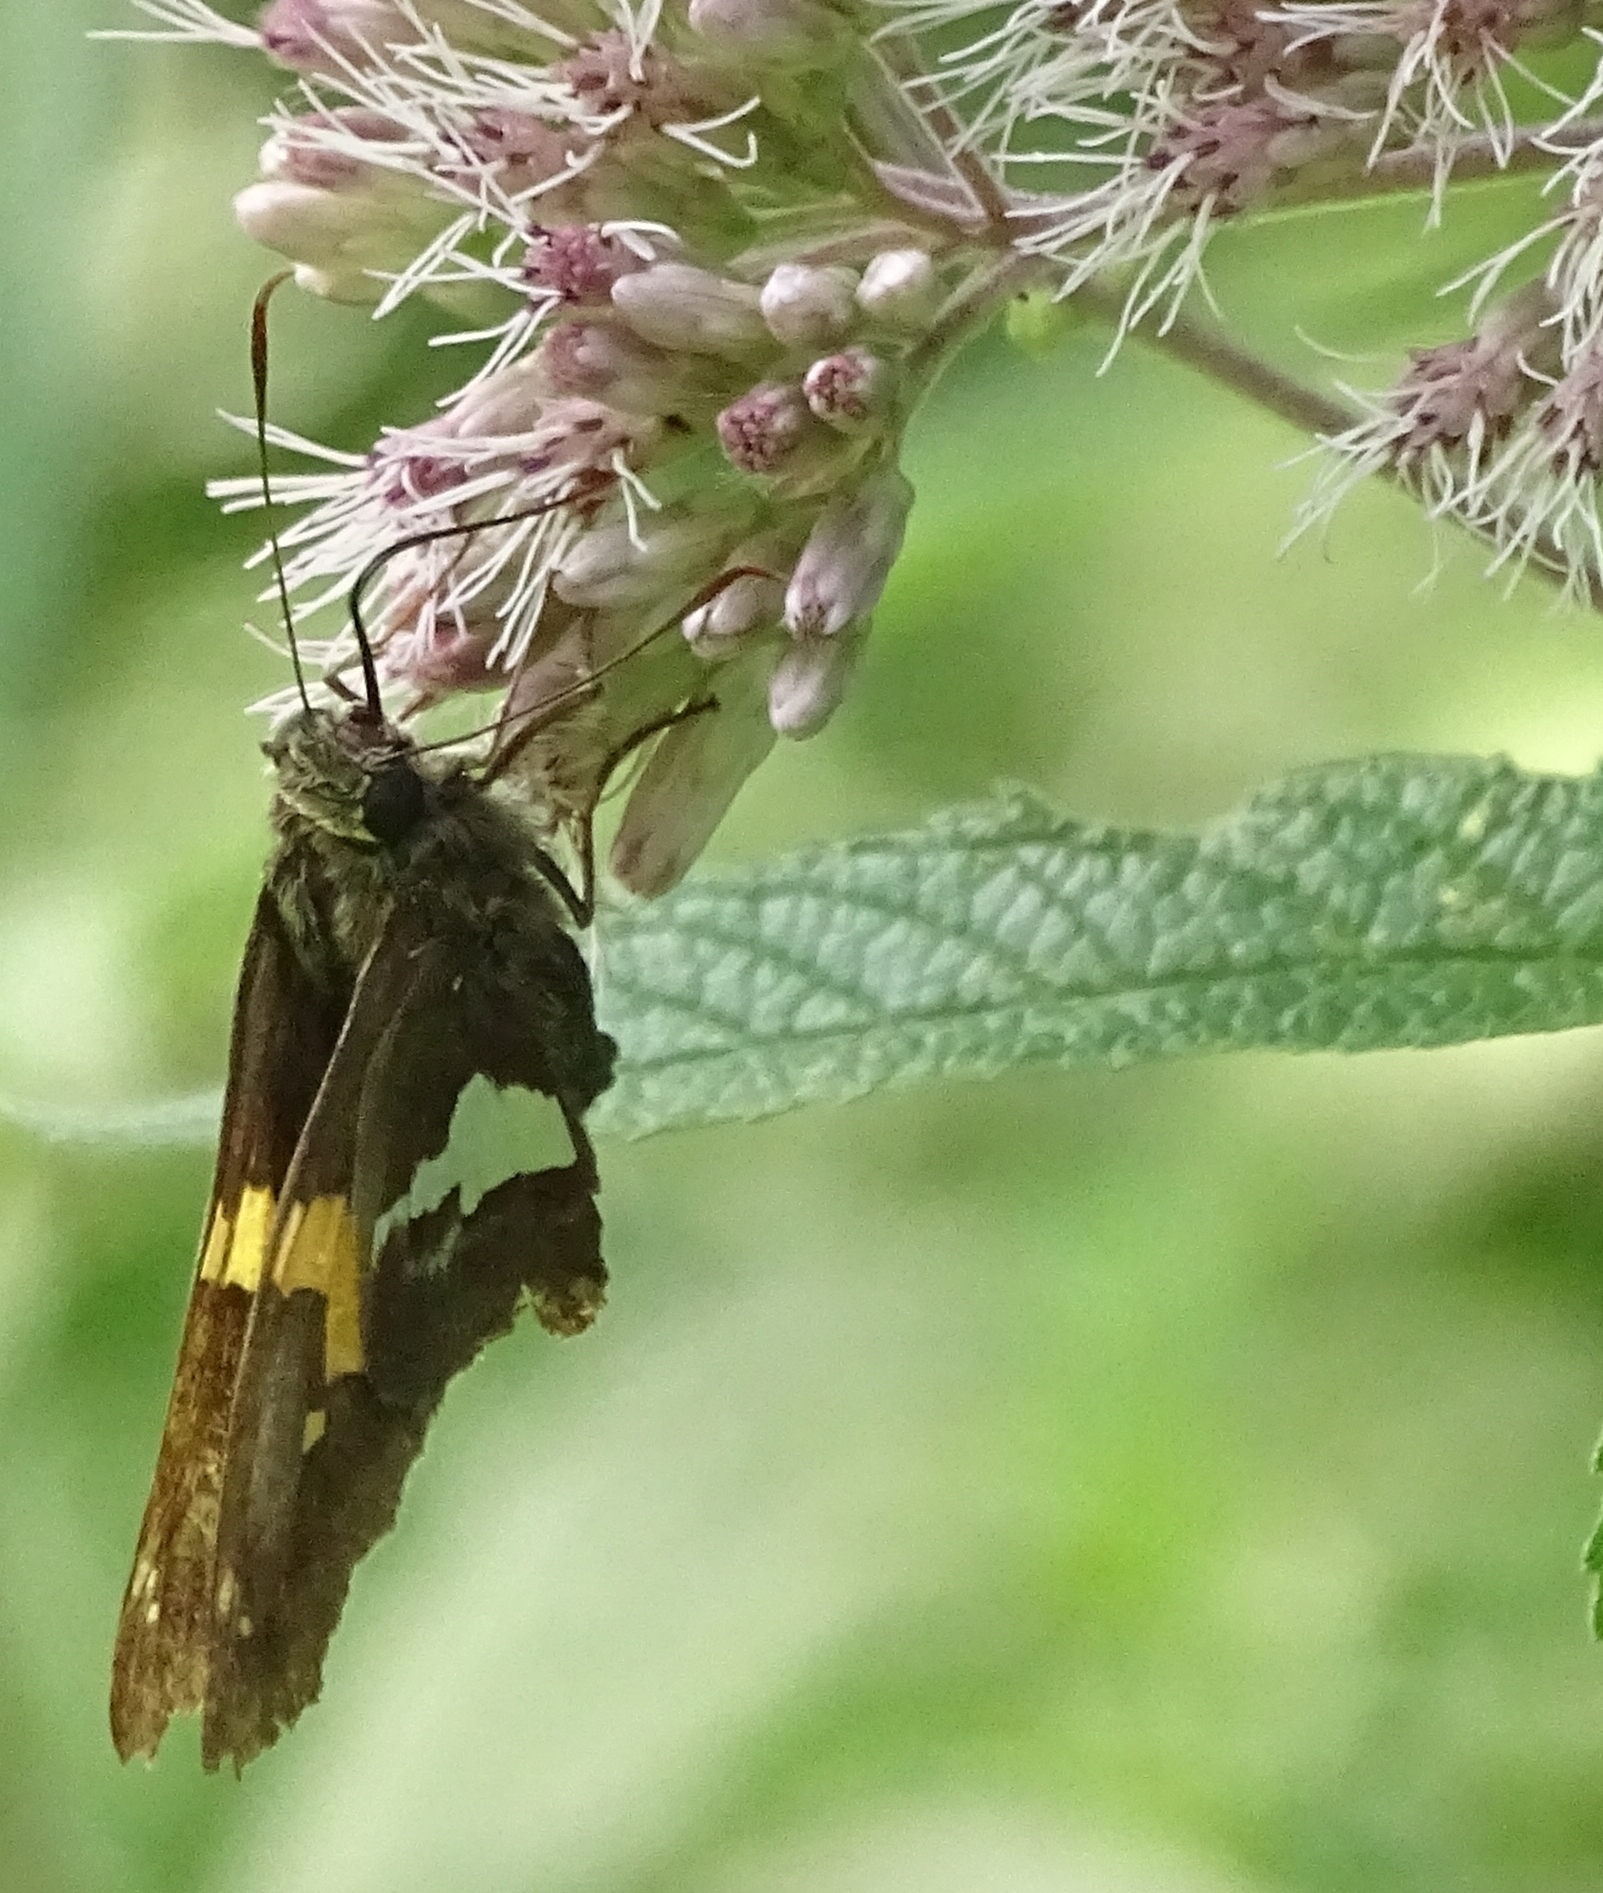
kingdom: Animalia
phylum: Arthropoda
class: Insecta
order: Lepidoptera
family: Hesperiidae
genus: Epargyreus
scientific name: Epargyreus clarus
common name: Silver-spotted skipper
